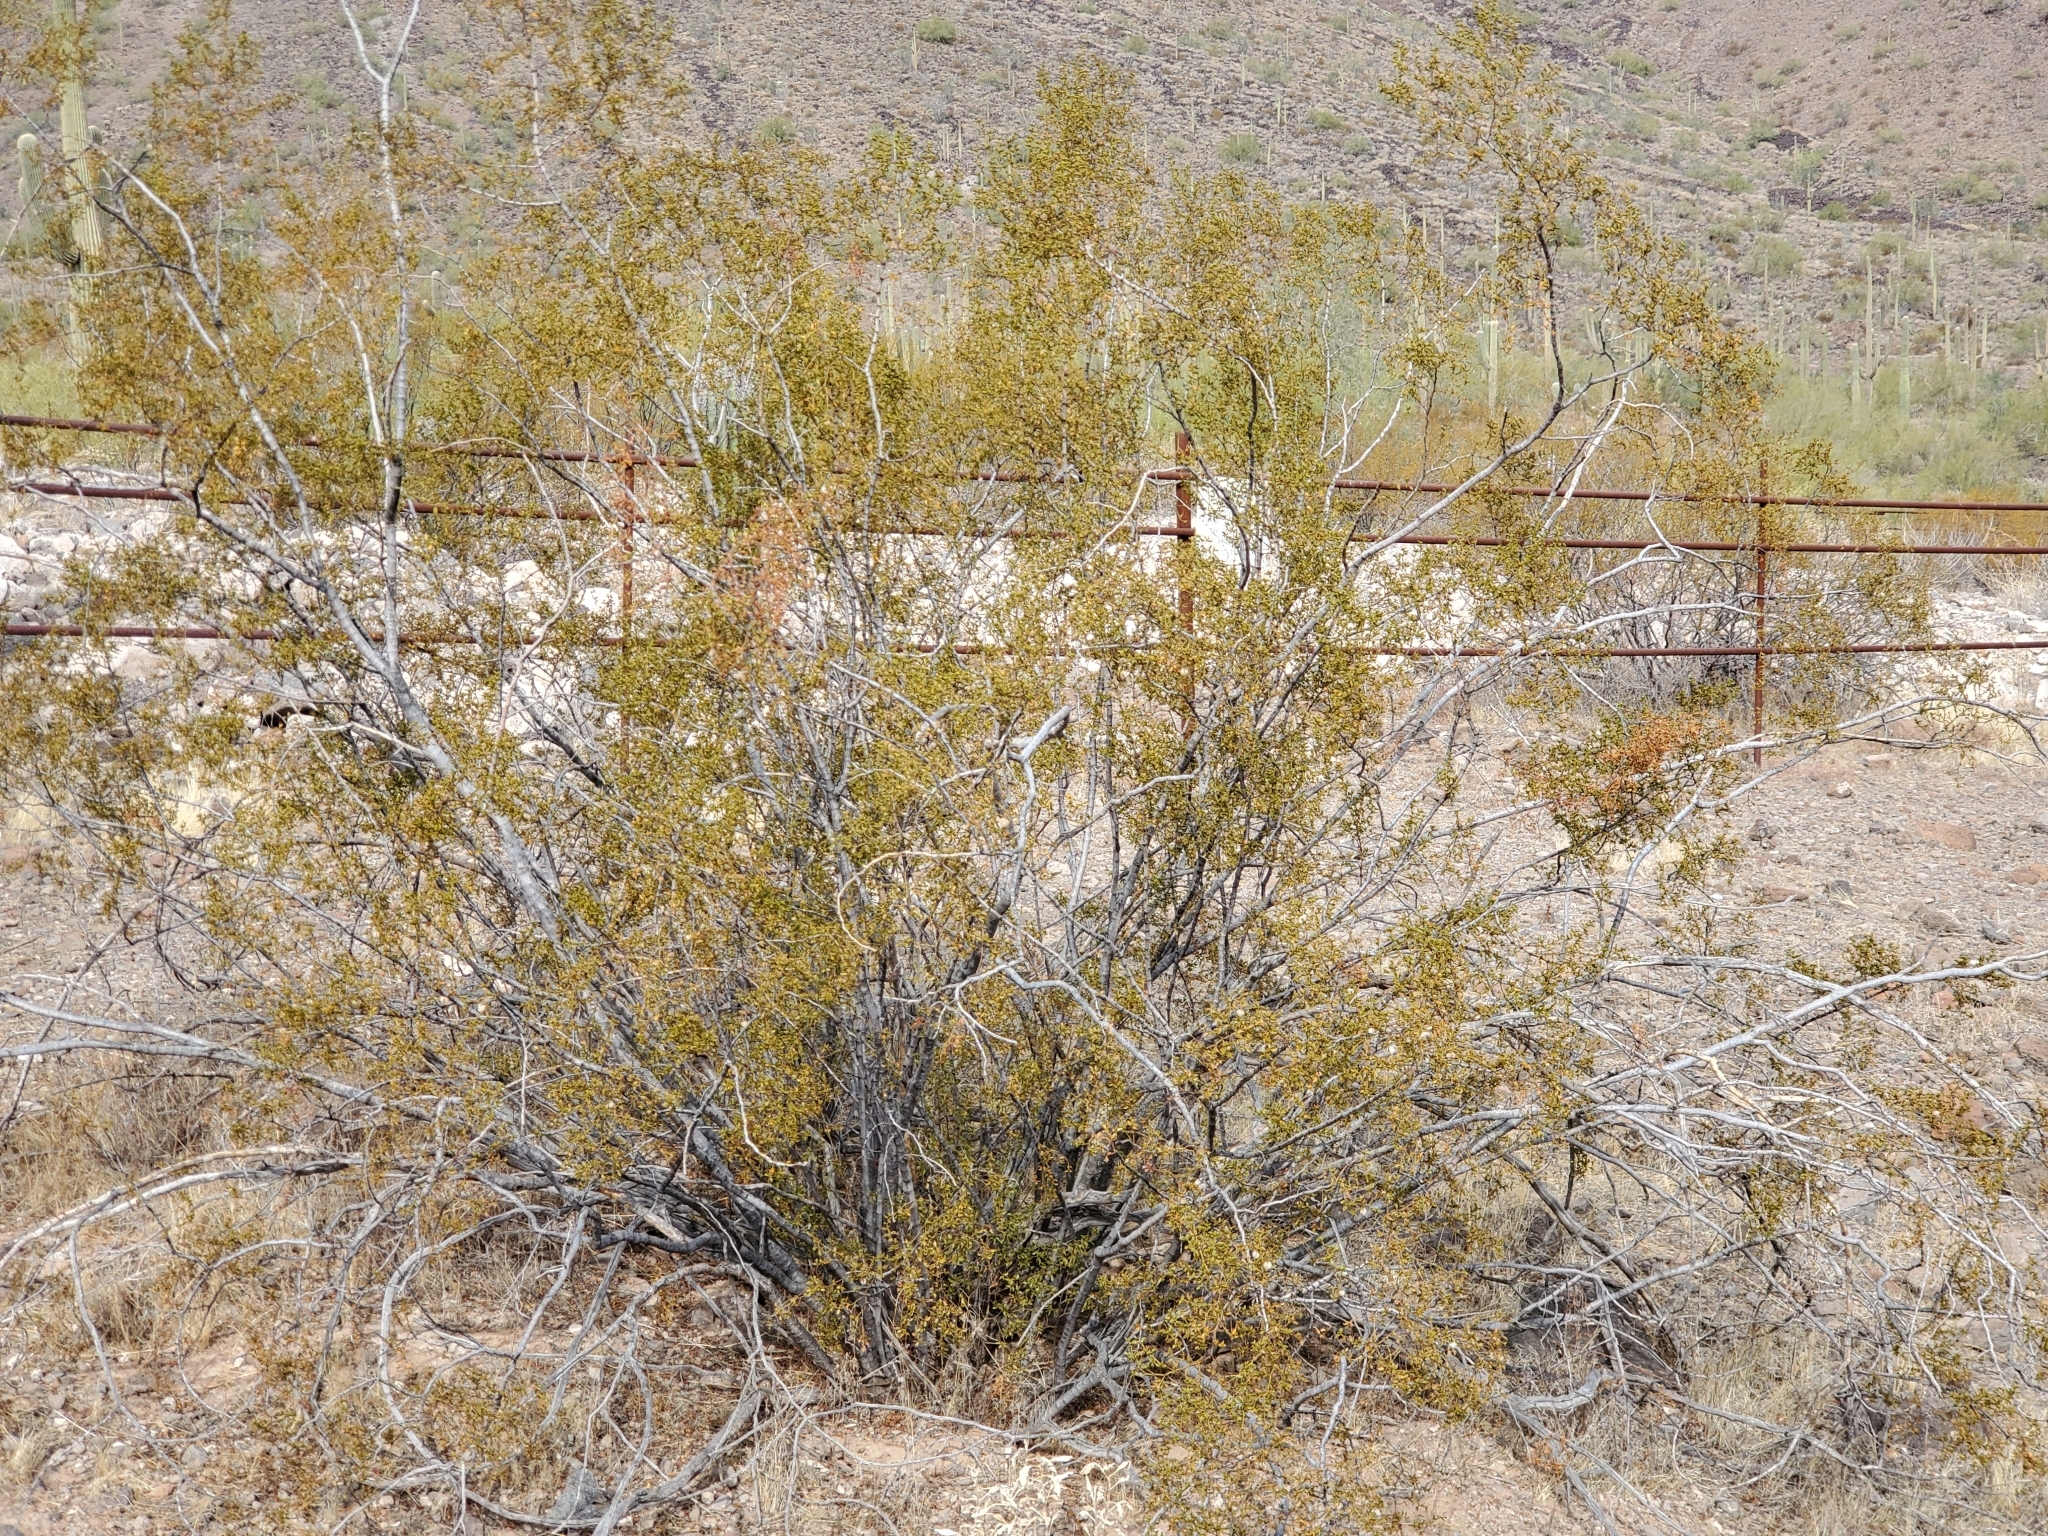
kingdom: Plantae
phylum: Tracheophyta
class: Magnoliopsida
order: Zygophyllales
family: Zygophyllaceae
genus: Larrea
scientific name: Larrea tridentata
